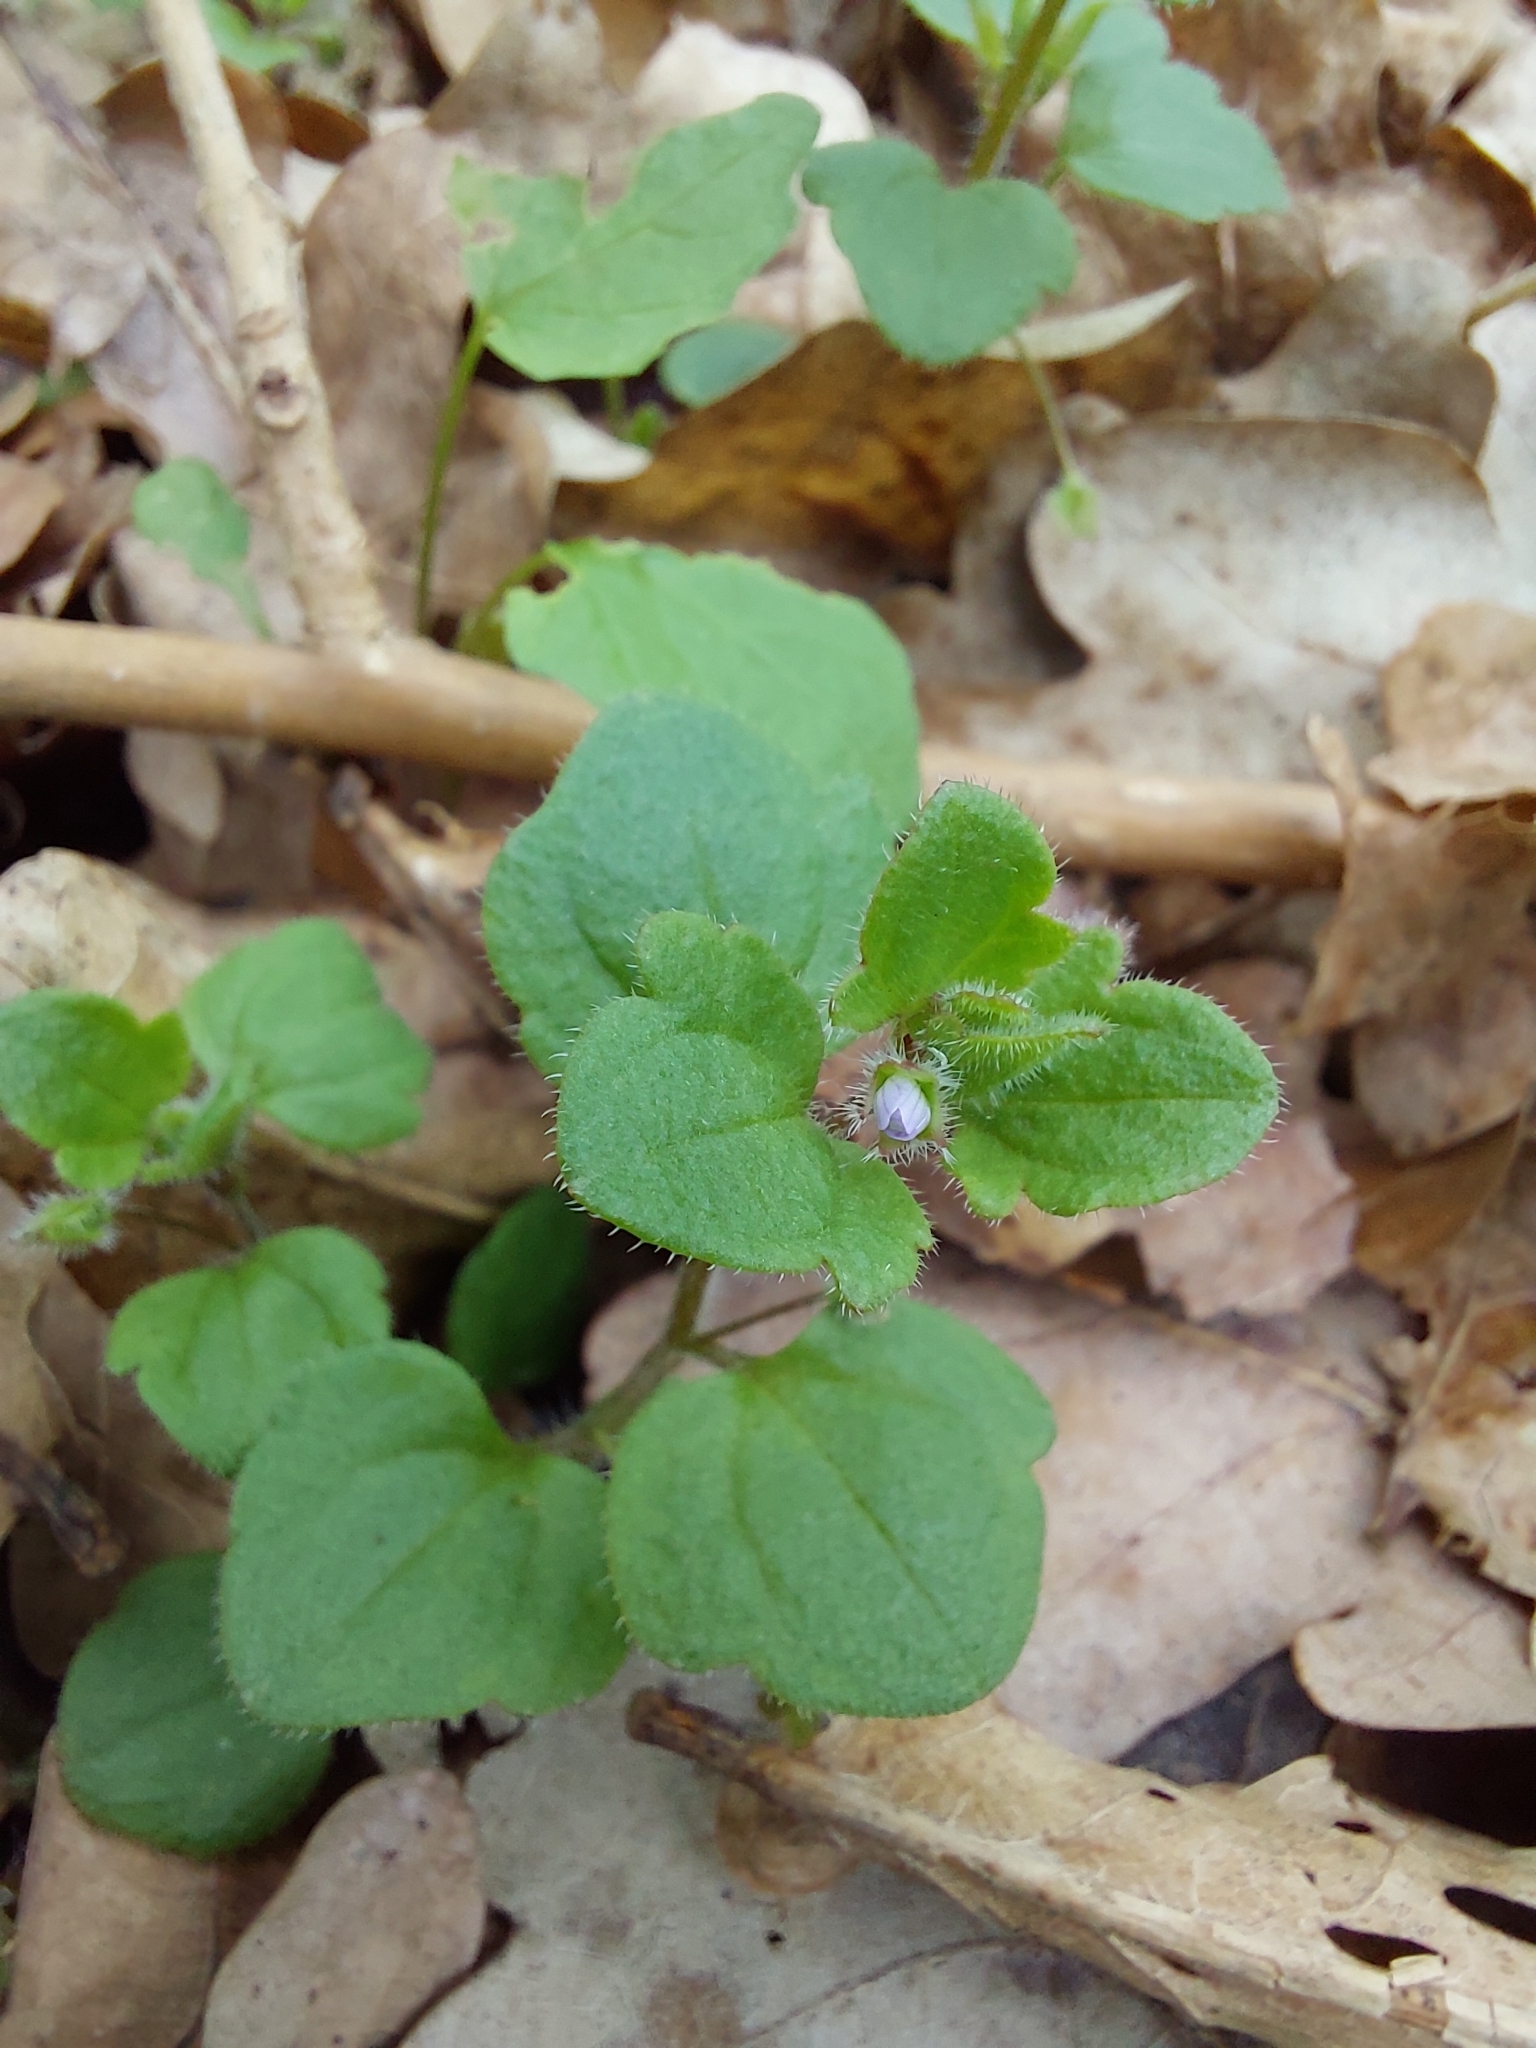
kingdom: Plantae
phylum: Tracheophyta
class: Magnoliopsida
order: Lamiales
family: Plantaginaceae
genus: Veronica
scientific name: Veronica sublobata
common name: False ivy-leaved speedwell
